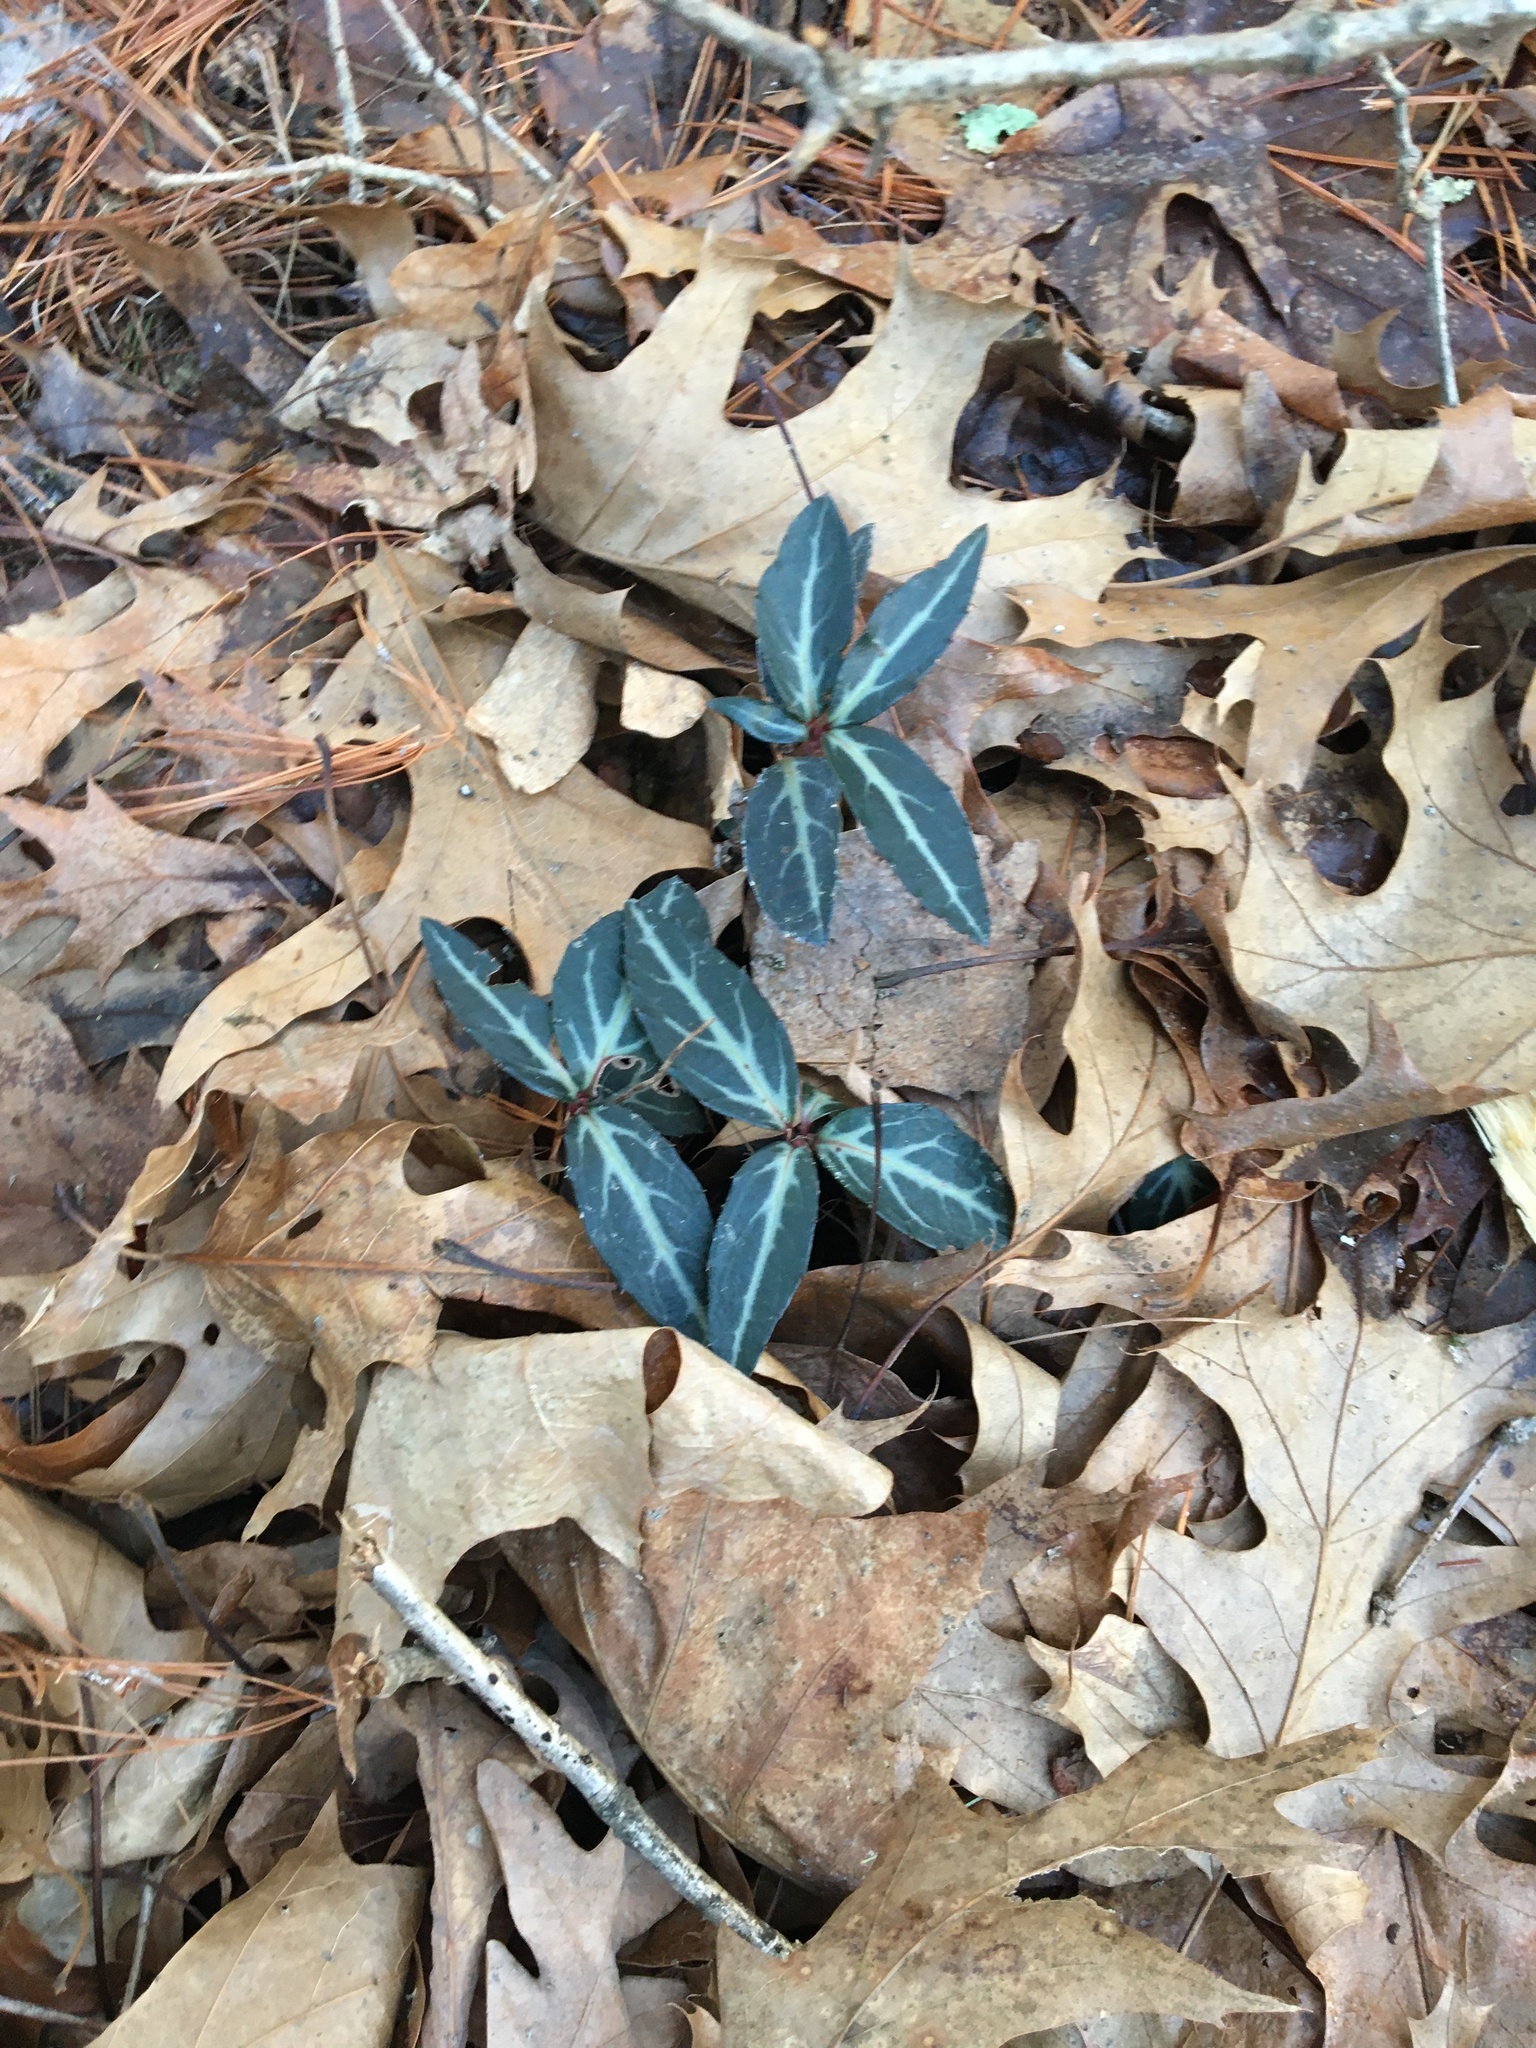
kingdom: Plantae
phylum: Tracheophyta
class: Magnoliopsida
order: Ericales
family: Ericaceae
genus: Chimaphila
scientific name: Chimaphila maculata
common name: Spotted pipsissewa
